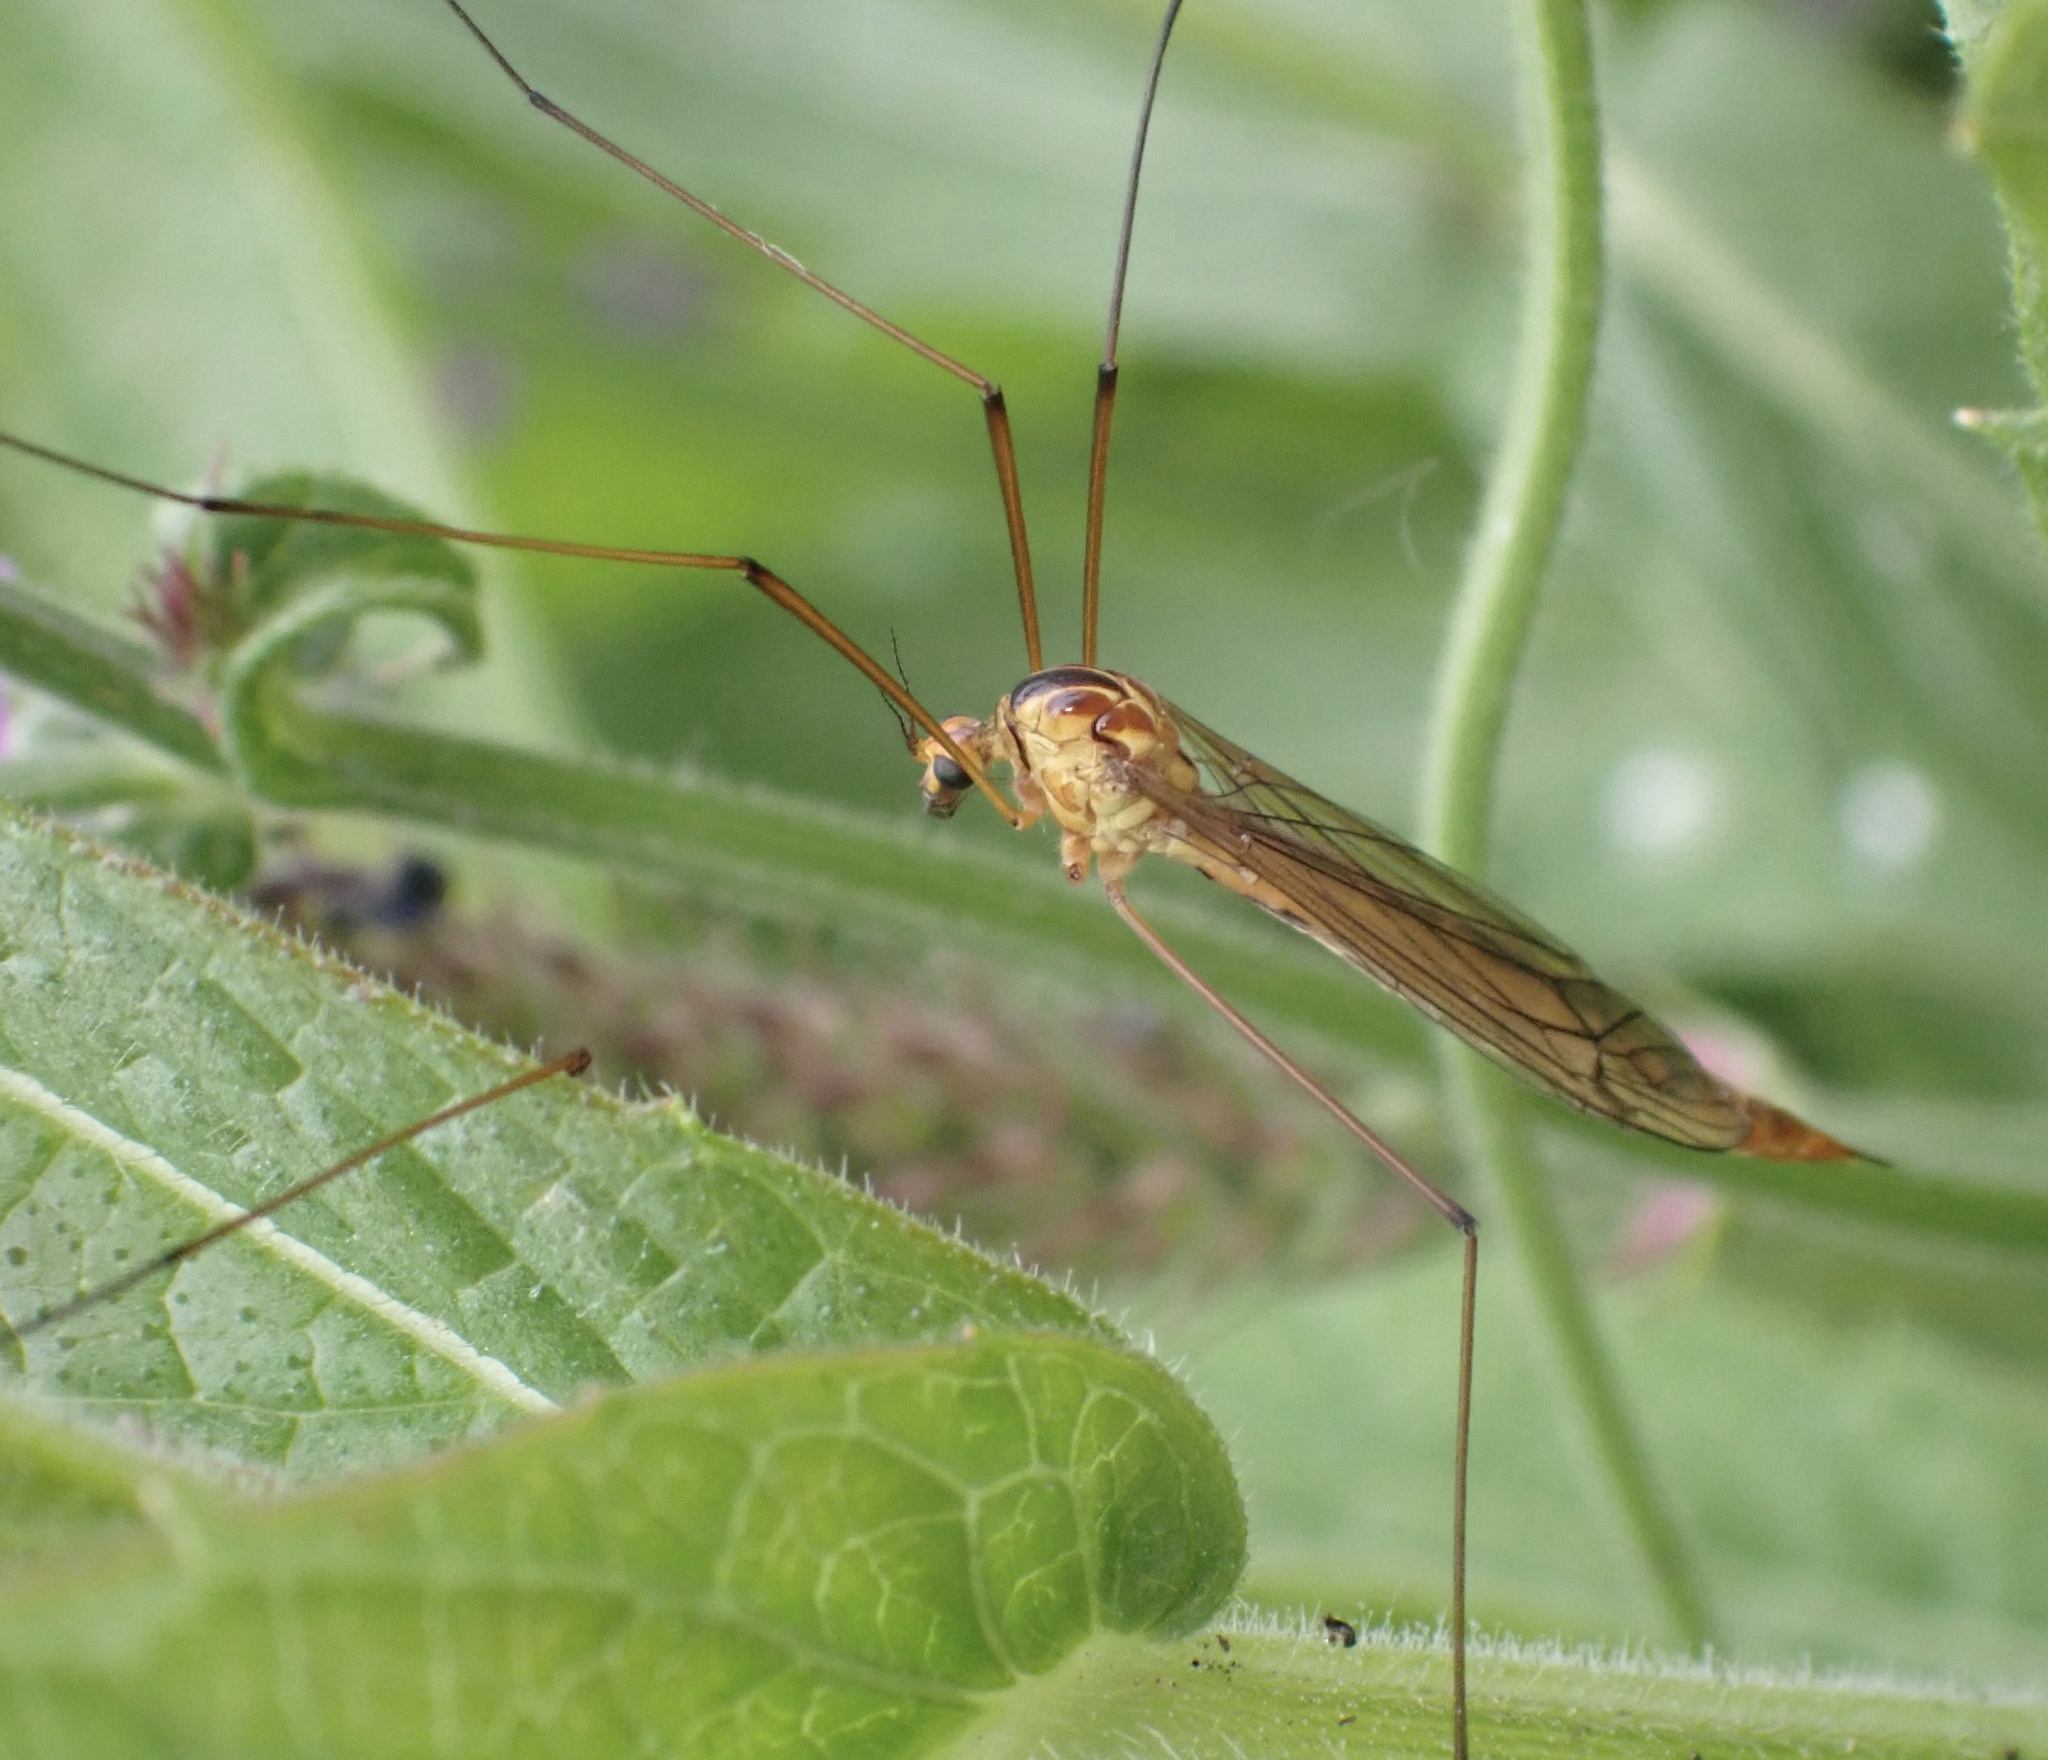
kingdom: Animalia
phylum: Arthropoda
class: Insecta
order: Diptera
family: Tipulidae
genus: Nephrotoma
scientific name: Nephrotoma scurra
